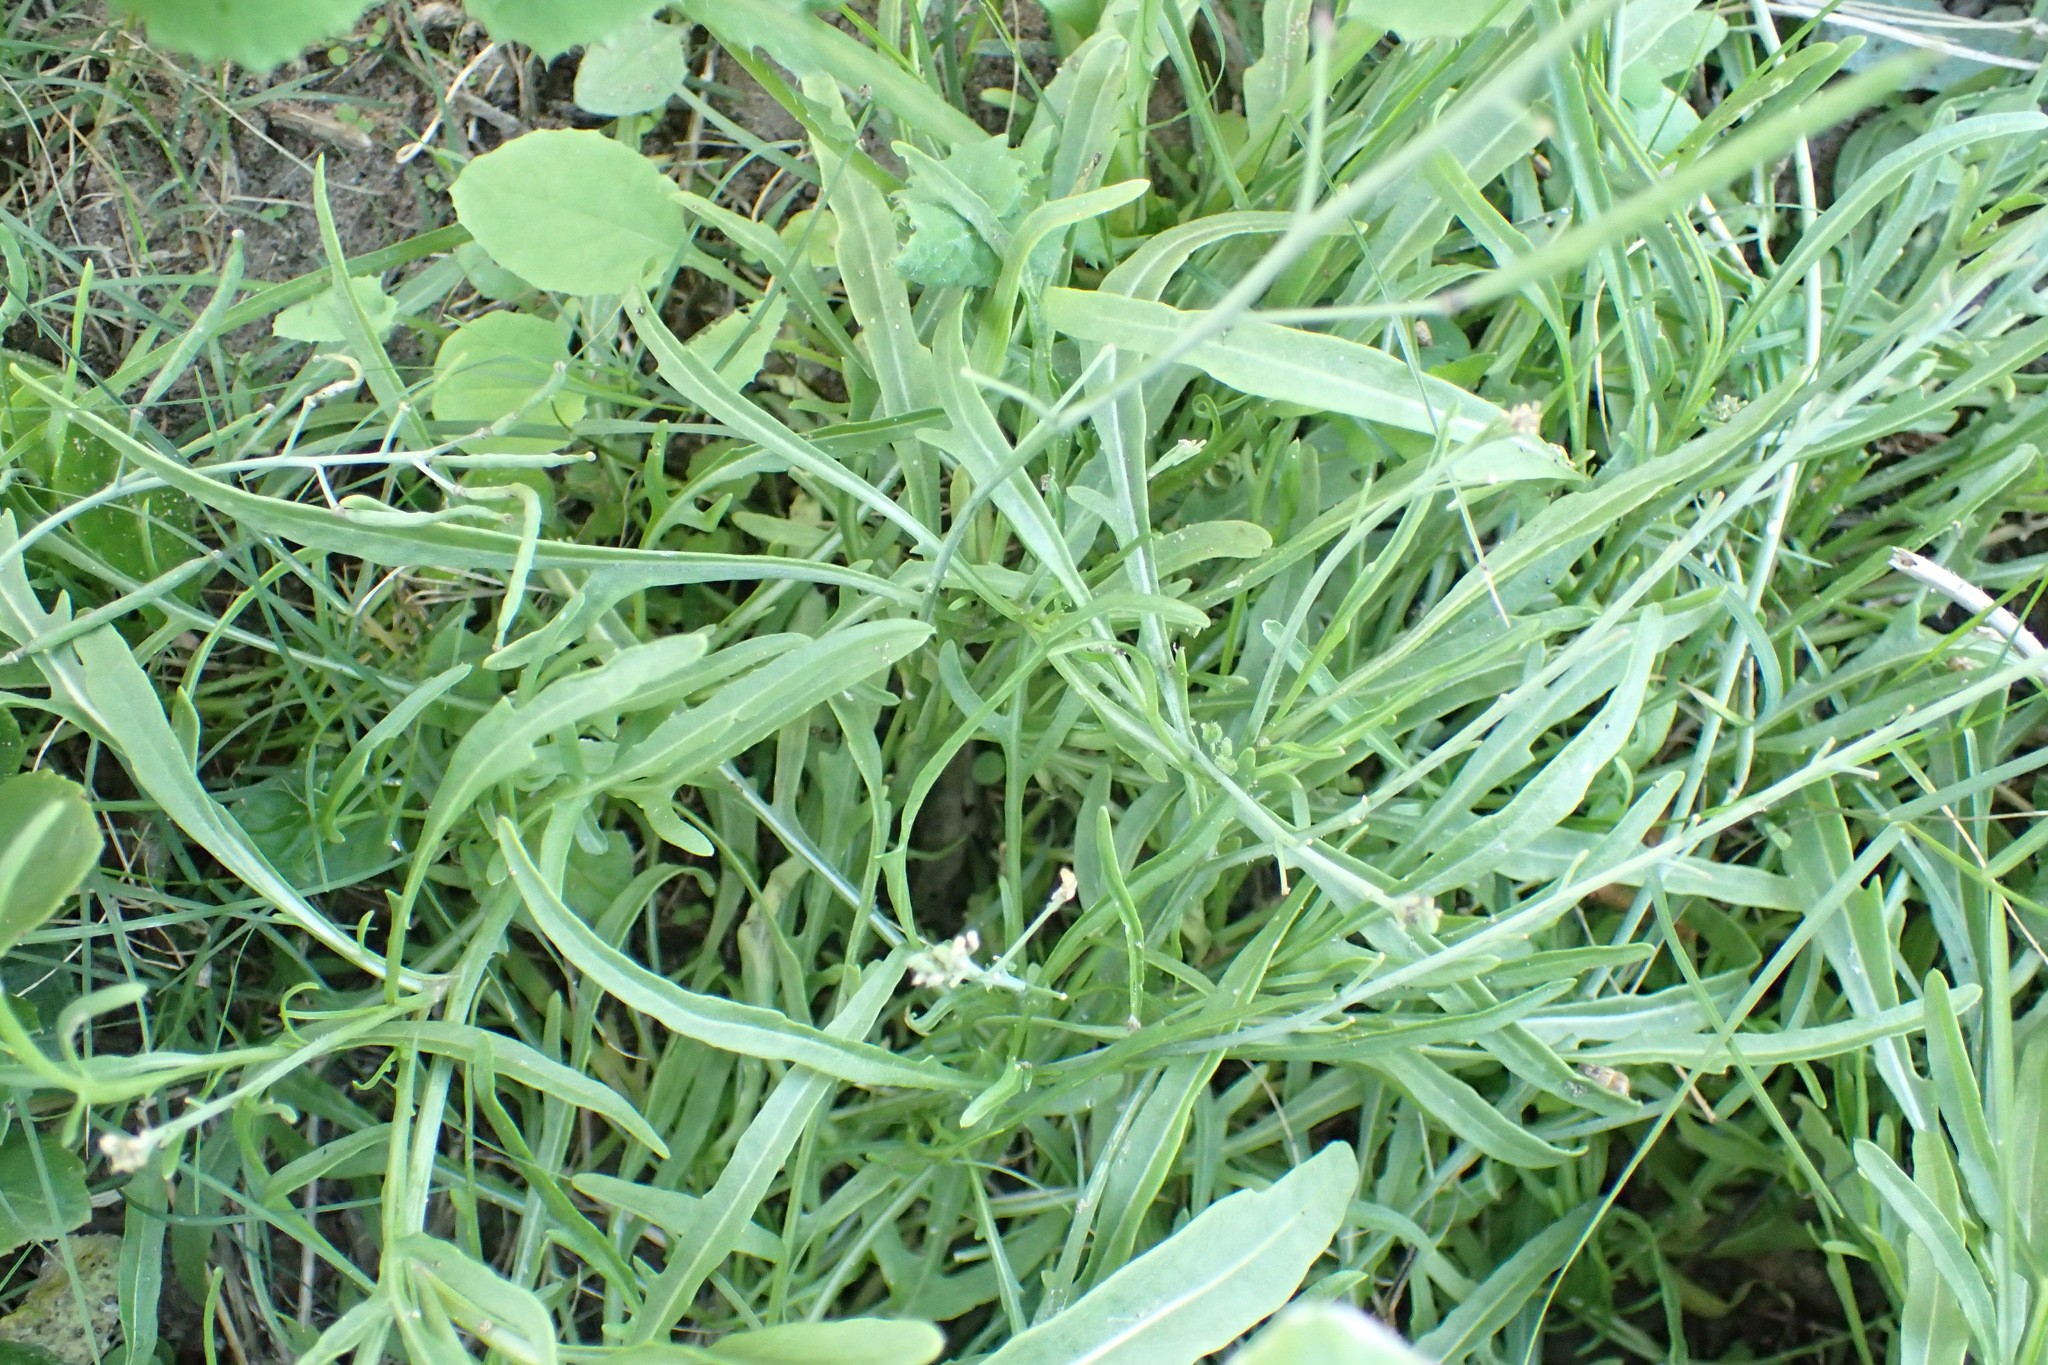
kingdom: Plantae
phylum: Tracheophyta
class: Magnoliopsida
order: Brassicales
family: Brassicaceae
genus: Diplotaxis
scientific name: Diplotaxis tenuifolia
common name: Perennial wall-rocket
